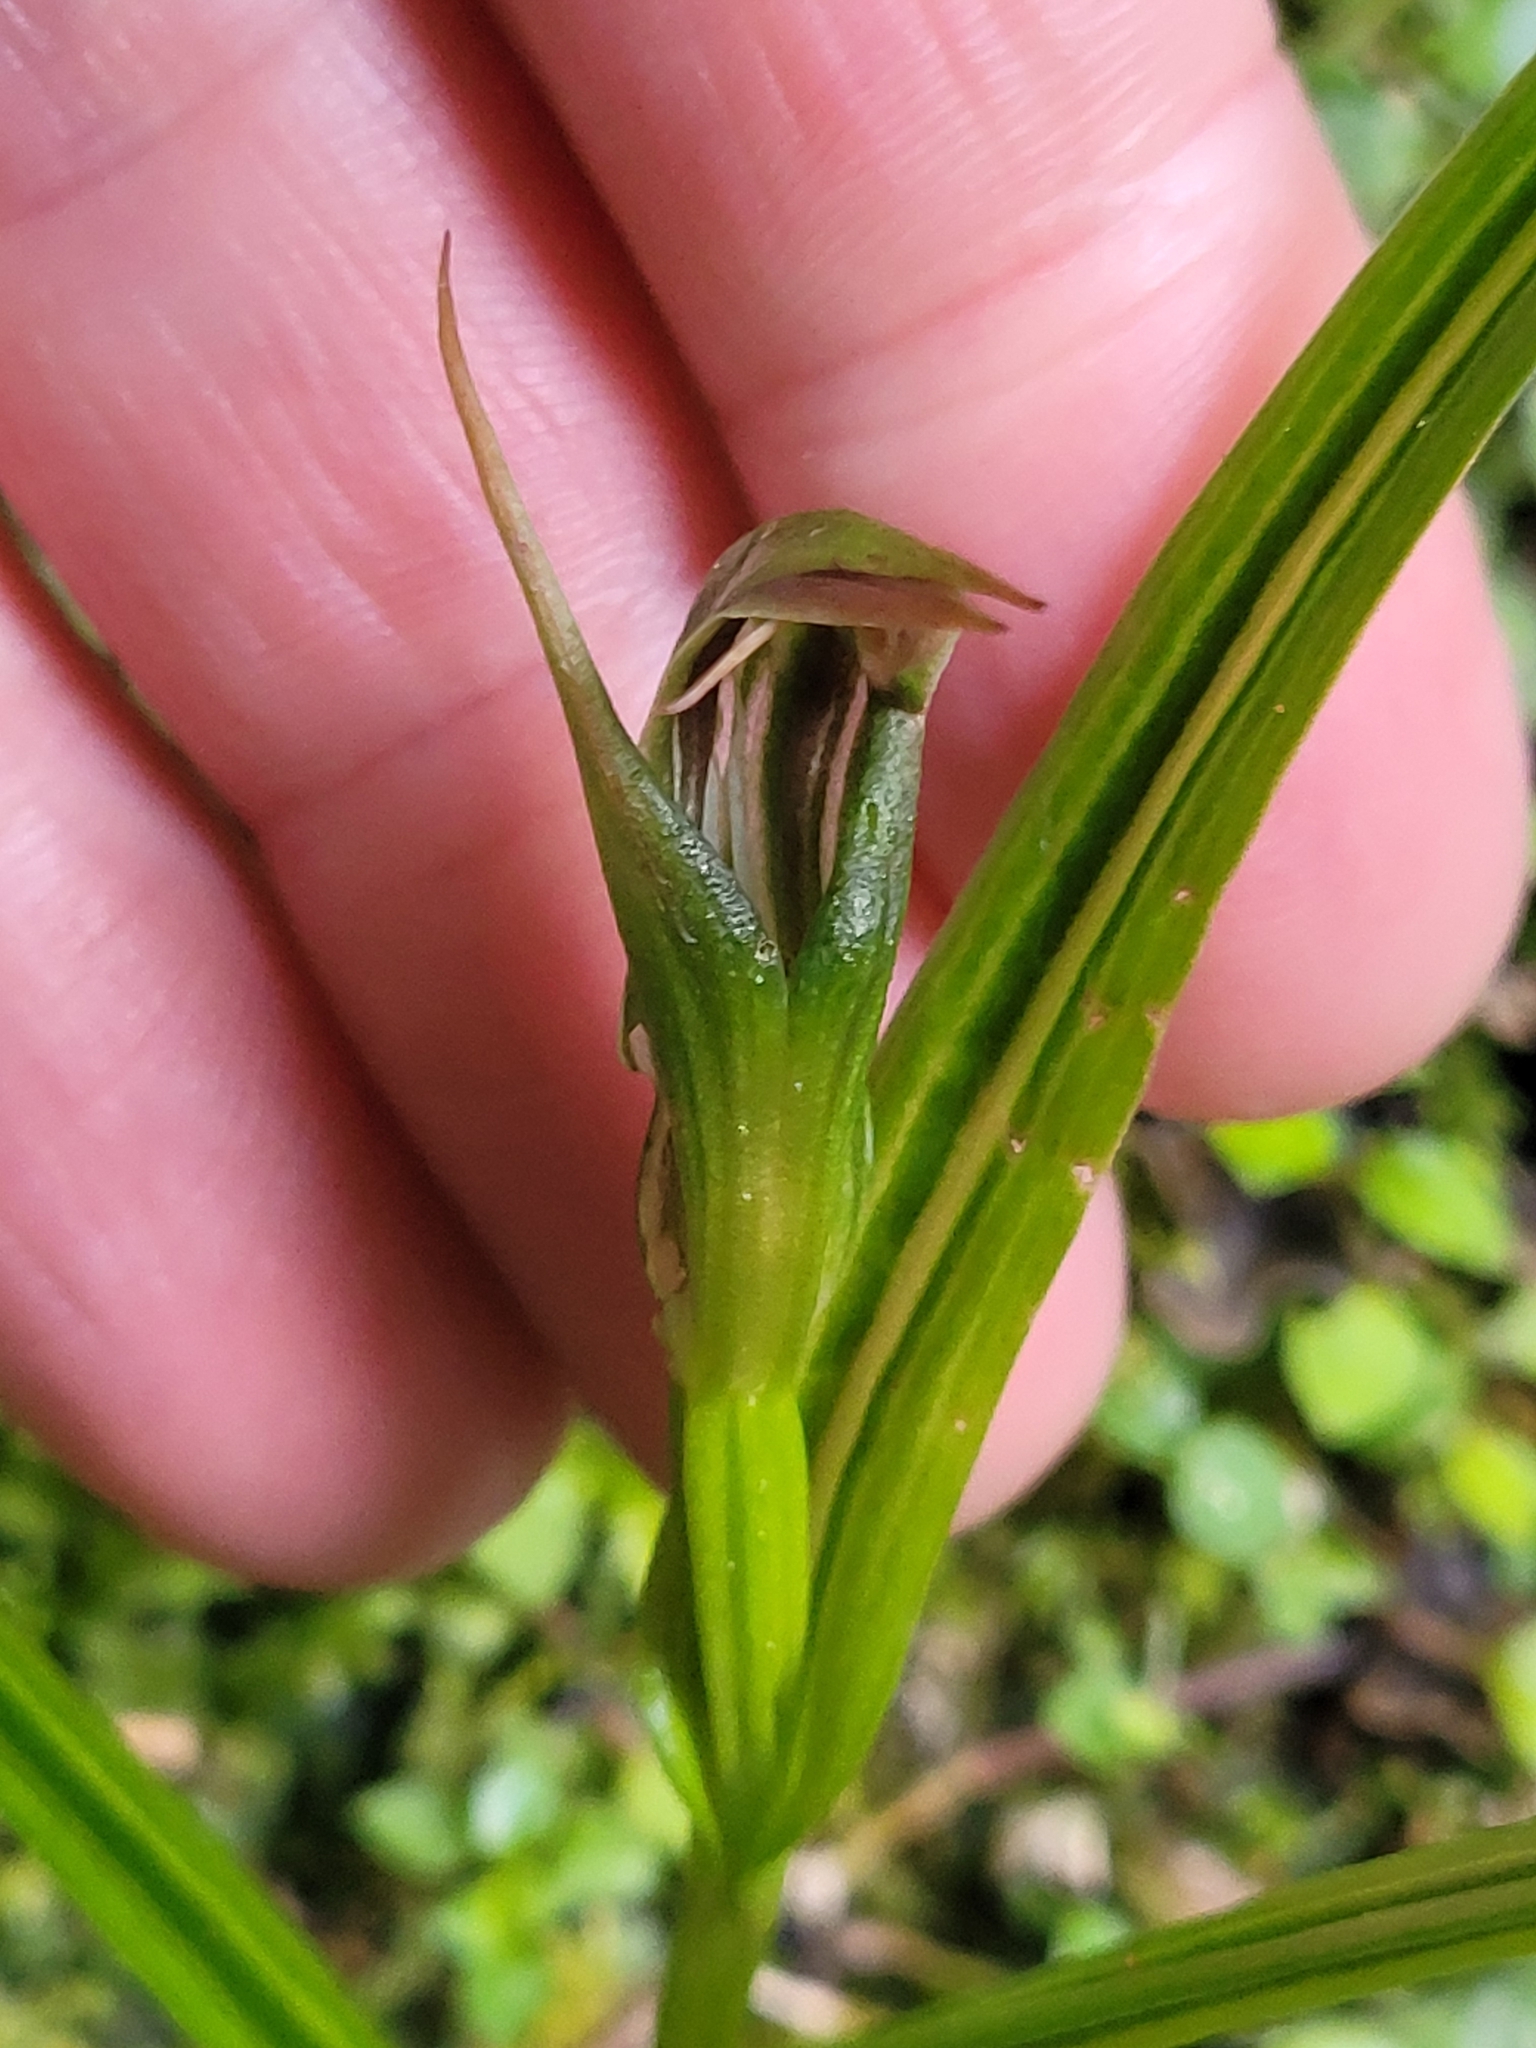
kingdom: Plantae
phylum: Tracheophyta
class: Liliopsida
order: Asparagales
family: Orchidaceae
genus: Pterostylis
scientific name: Pterostylis irsoniana
